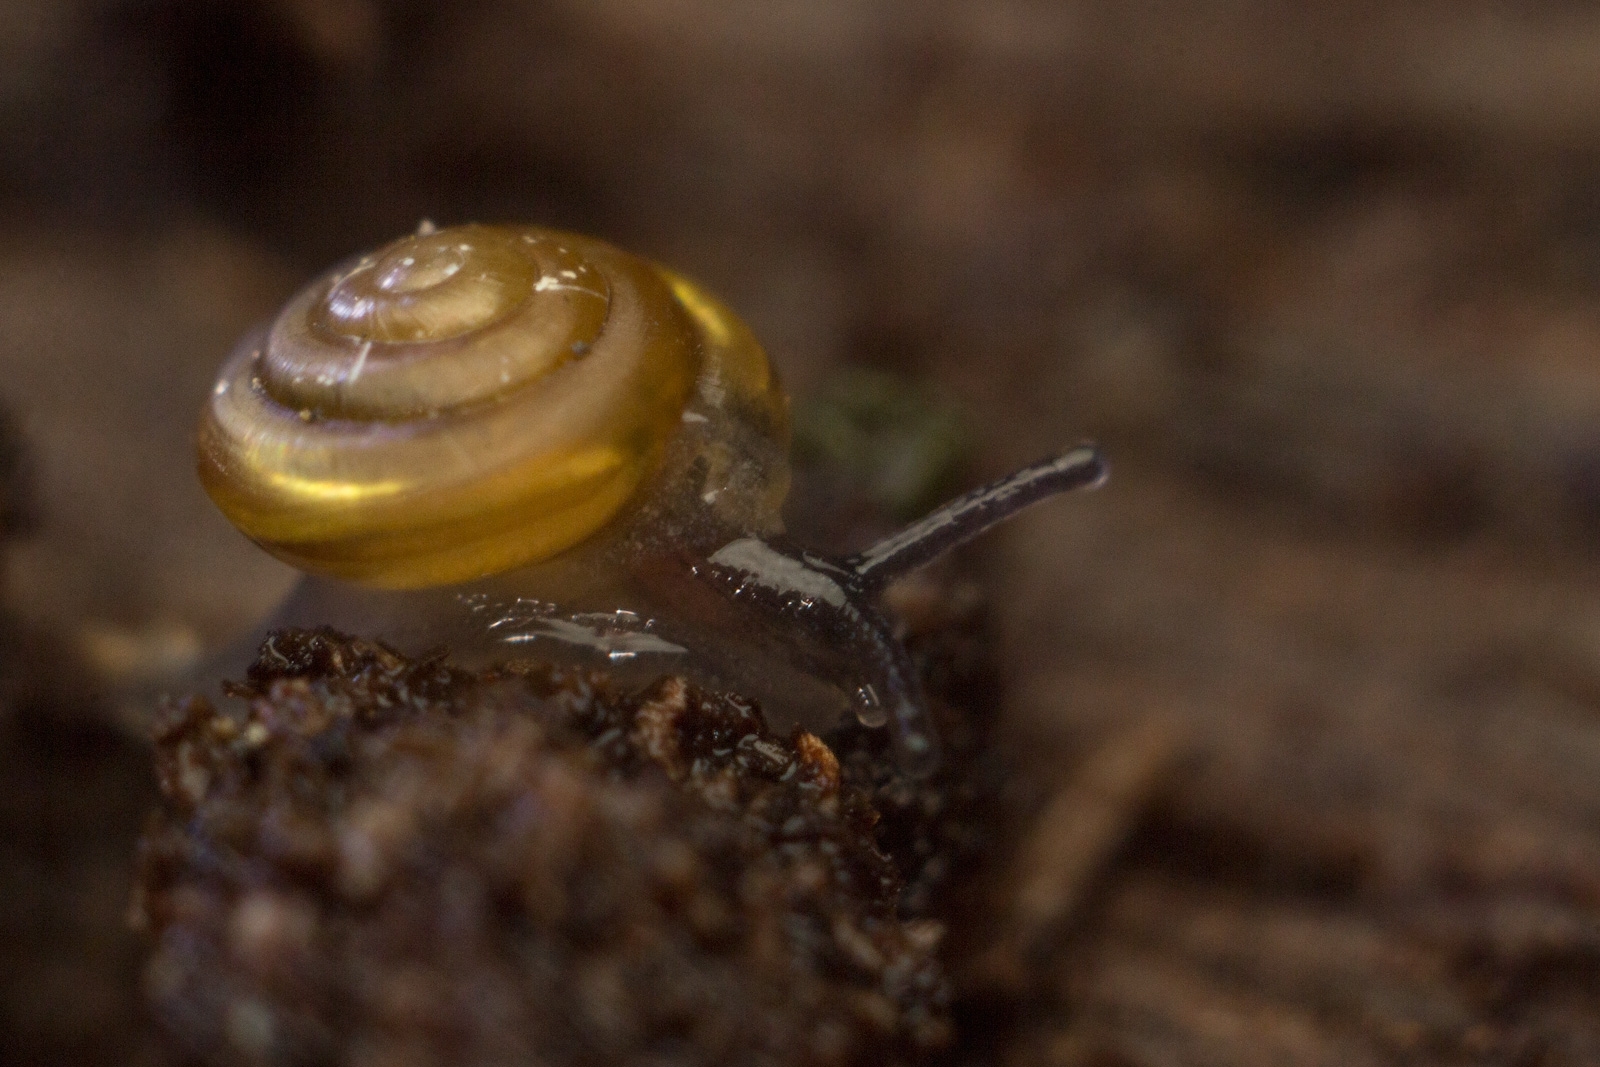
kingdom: Animalia
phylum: Mollusca
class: Gastropoda
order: Stylommatophora
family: Euconulidae
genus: Euconulus
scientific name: Euconulus fulvus
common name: Tawny glass snail
